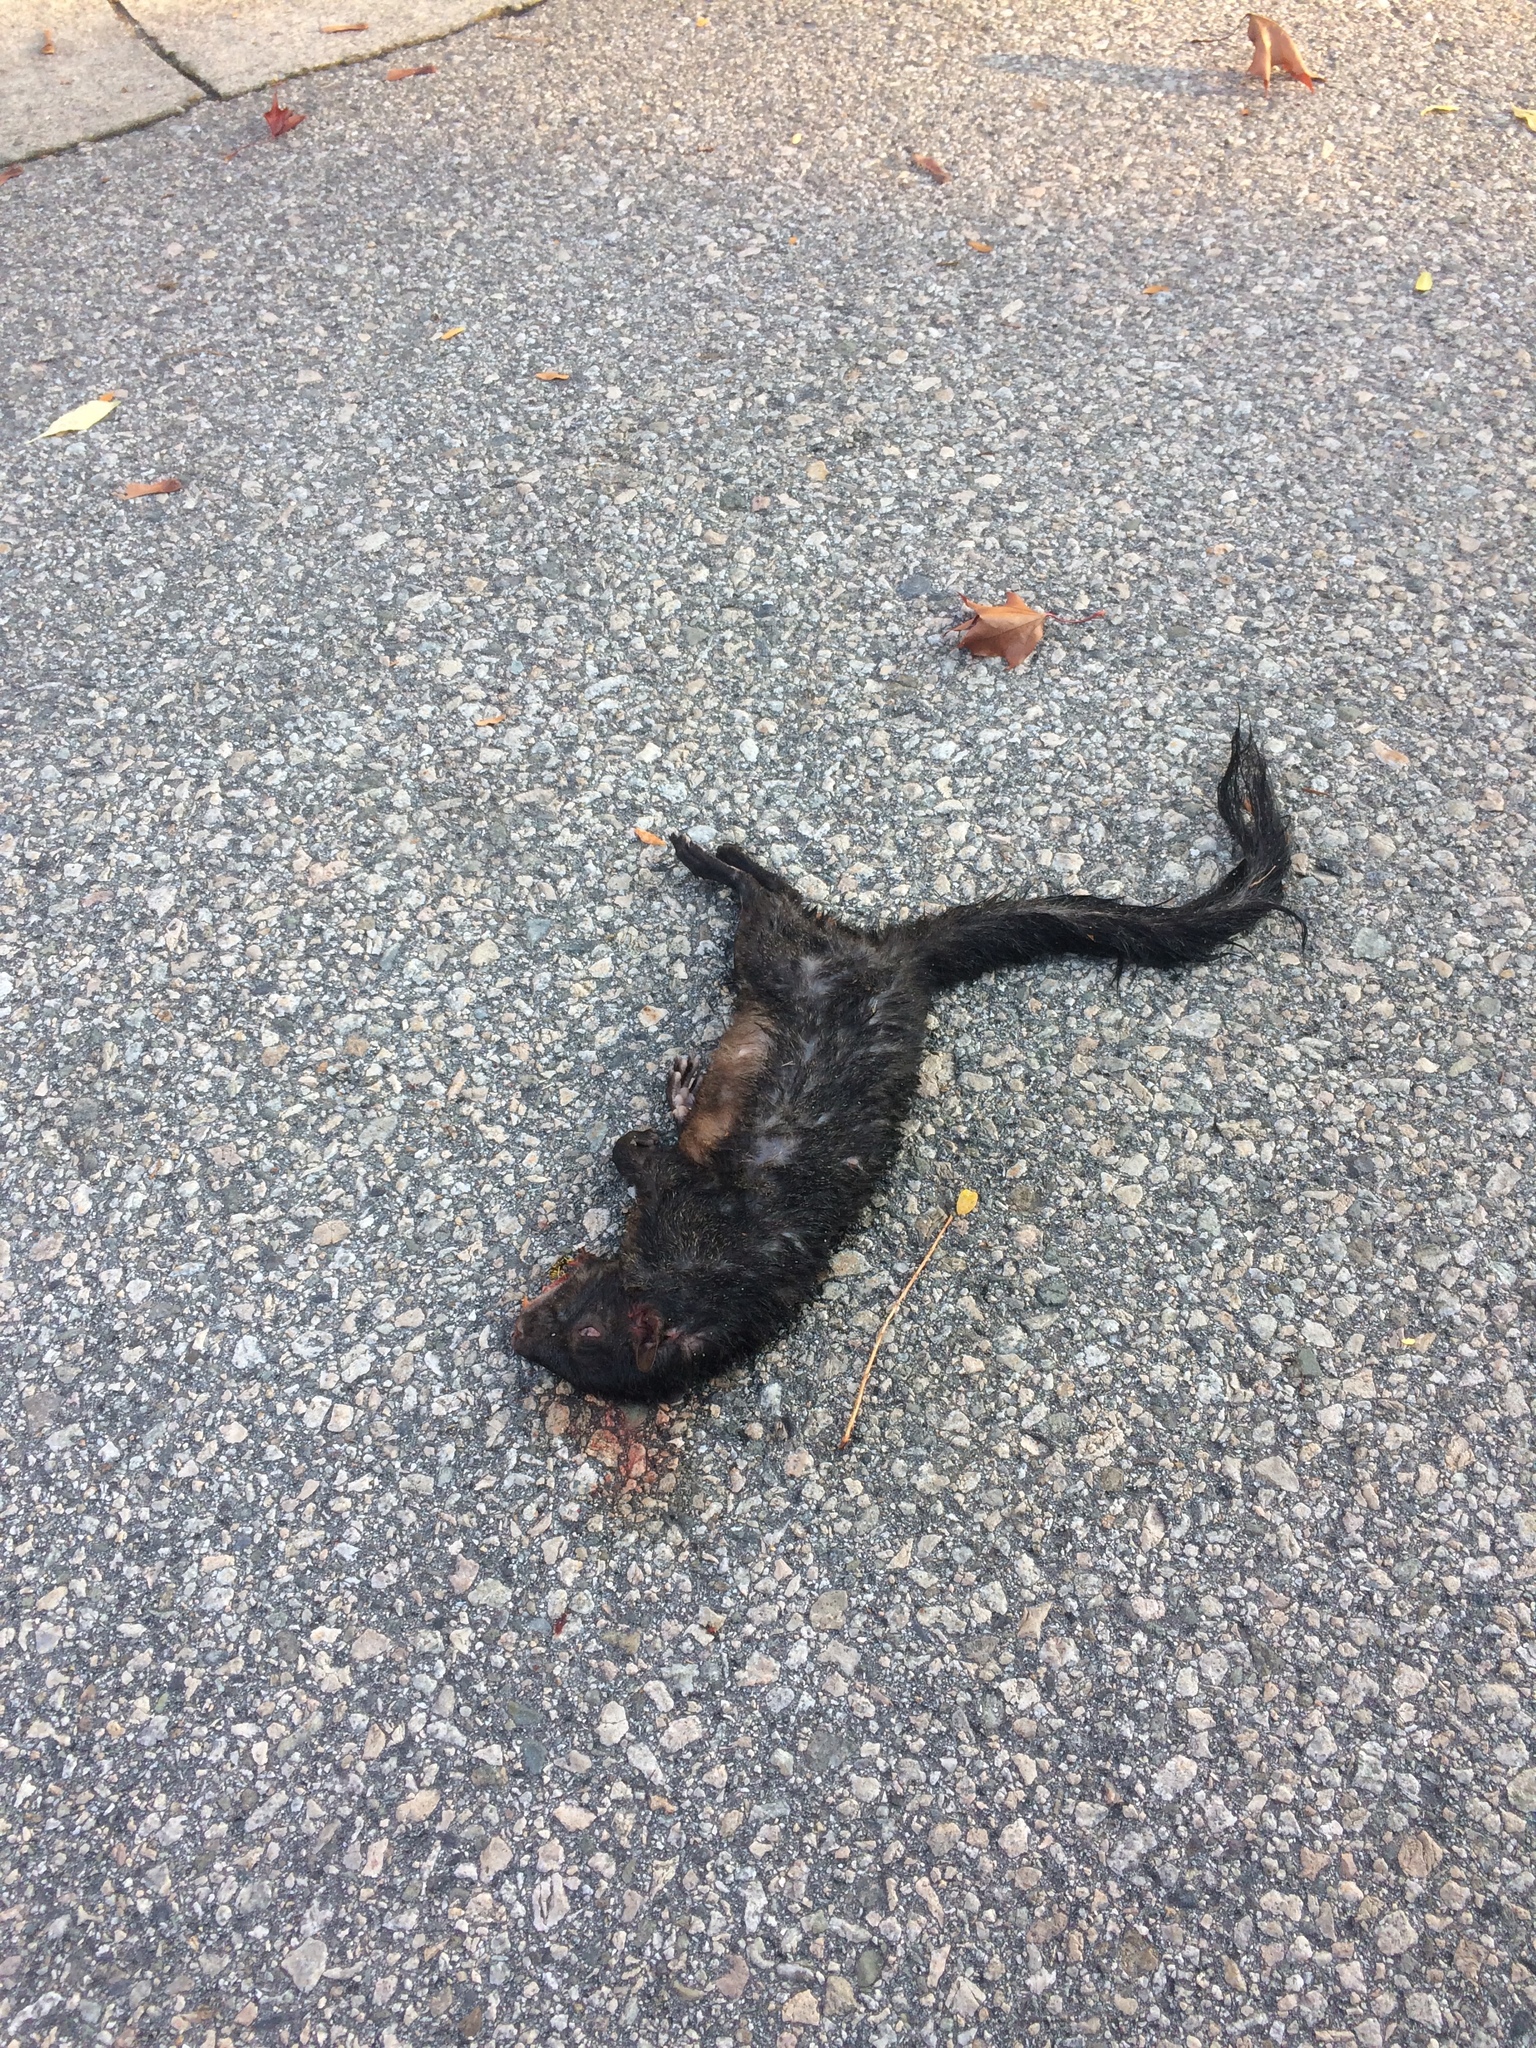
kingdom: Animalia
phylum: Chordata
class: Mammalia
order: Rodentia
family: Sciuridae
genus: Sciurus
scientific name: Sciurus carolinensis
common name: Eastern gray squirrel
